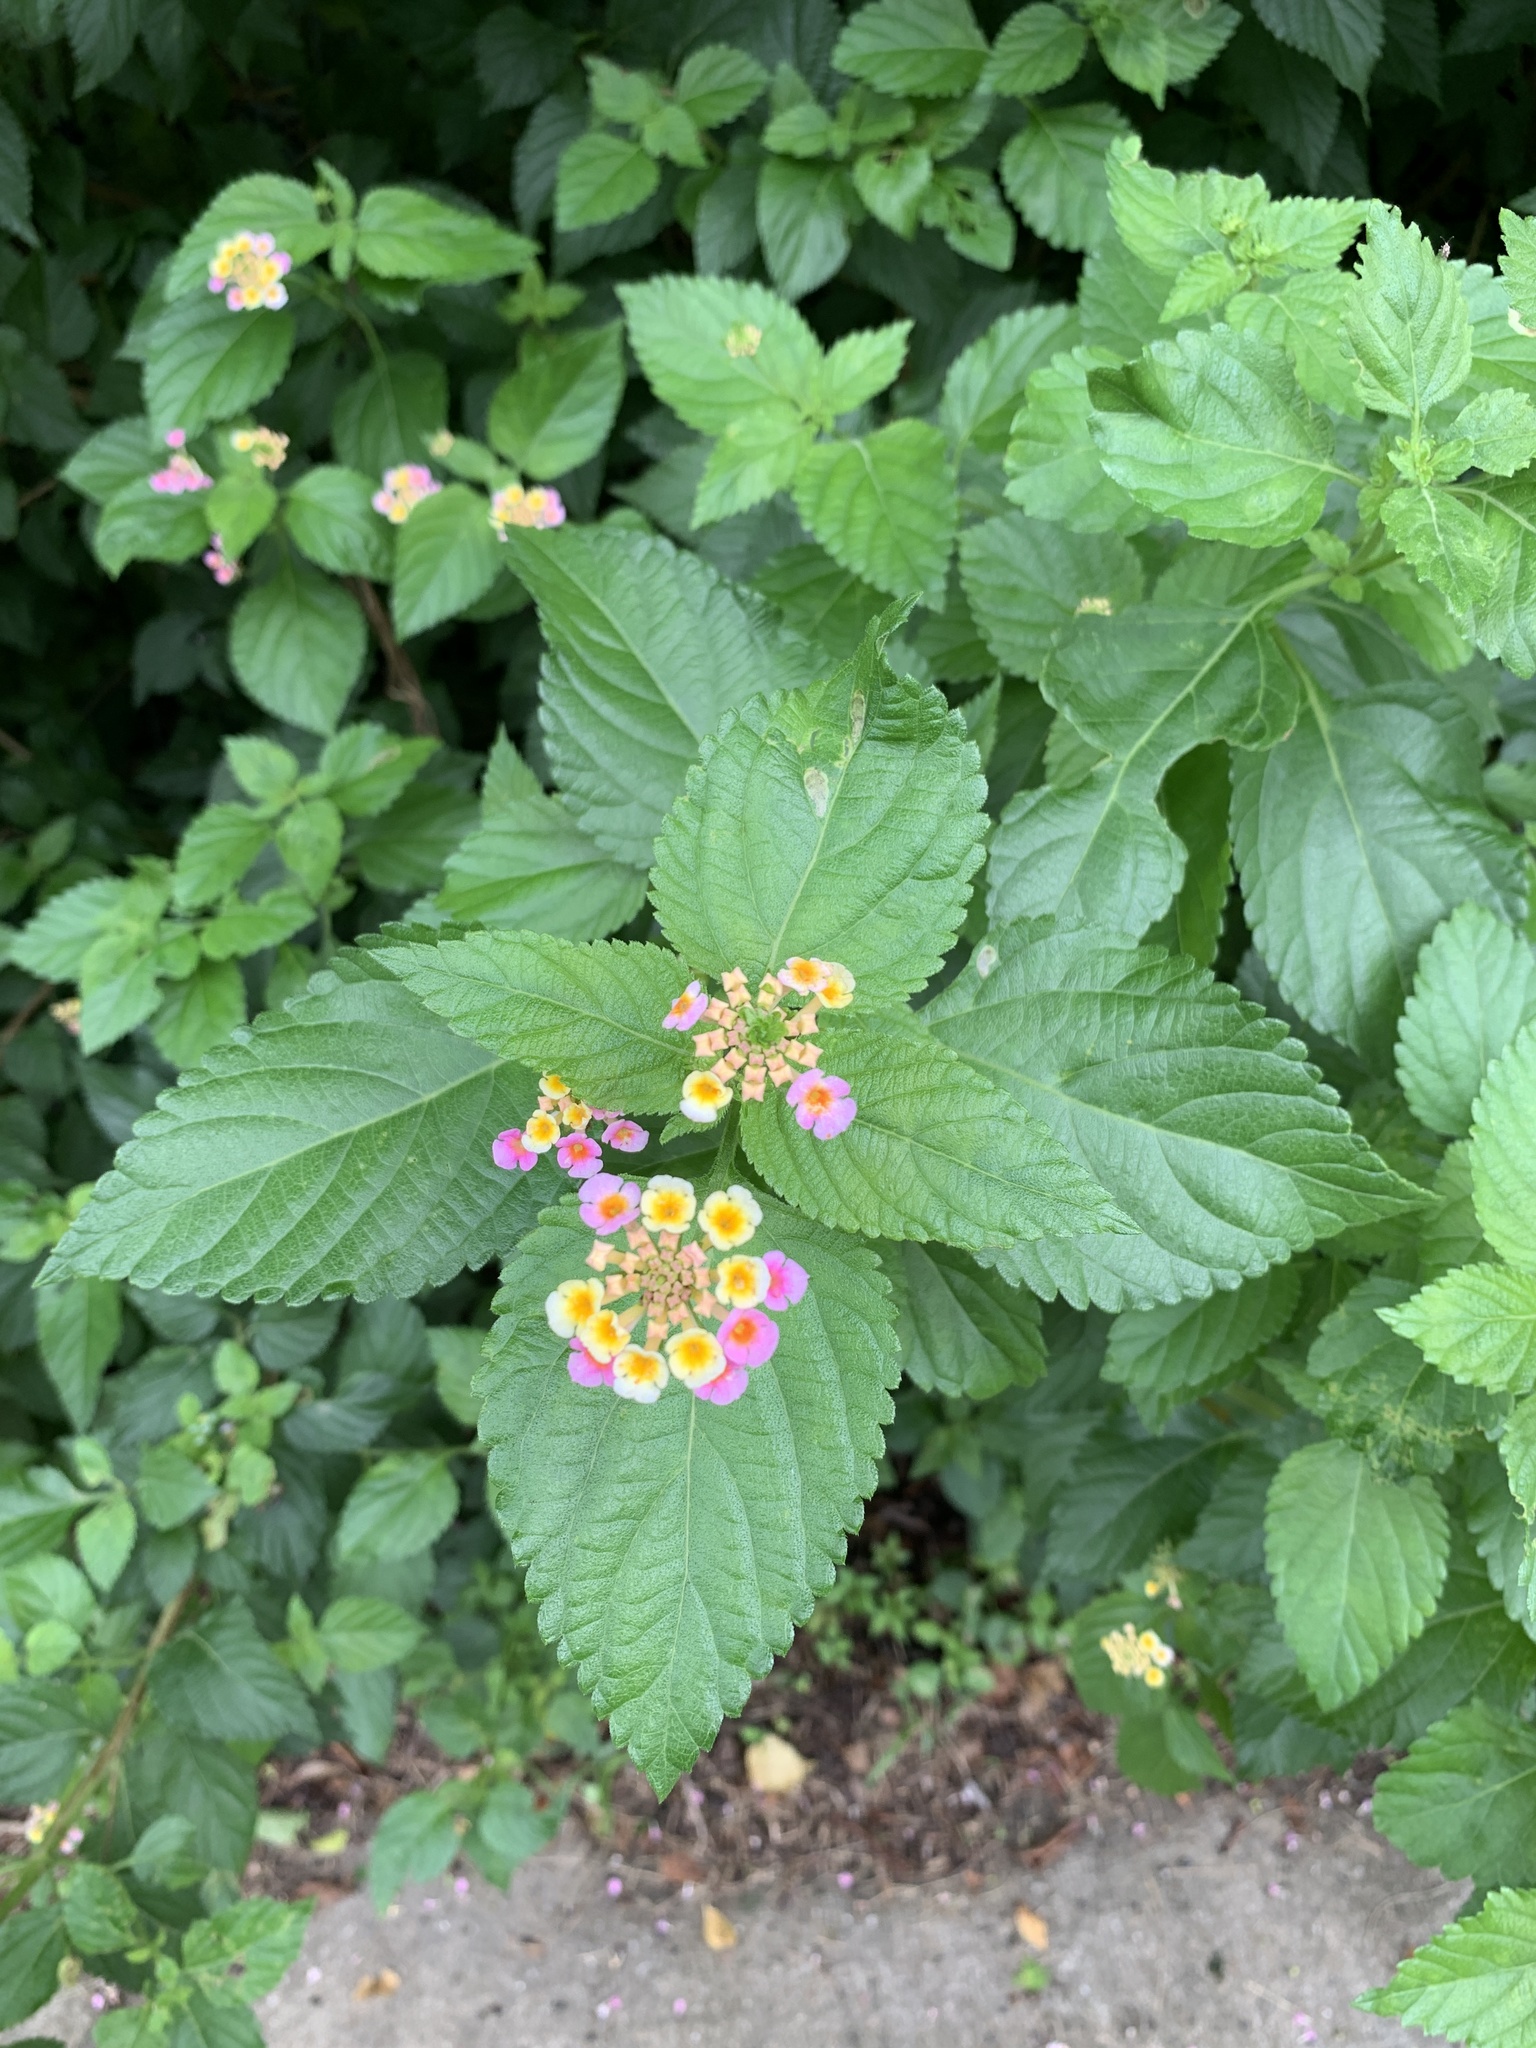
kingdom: Plantae
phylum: Tracheophyta
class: Magnoliopsida
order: Lamiales
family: Verbenaceae
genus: Lantana
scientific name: Lantana camara
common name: Lantana
